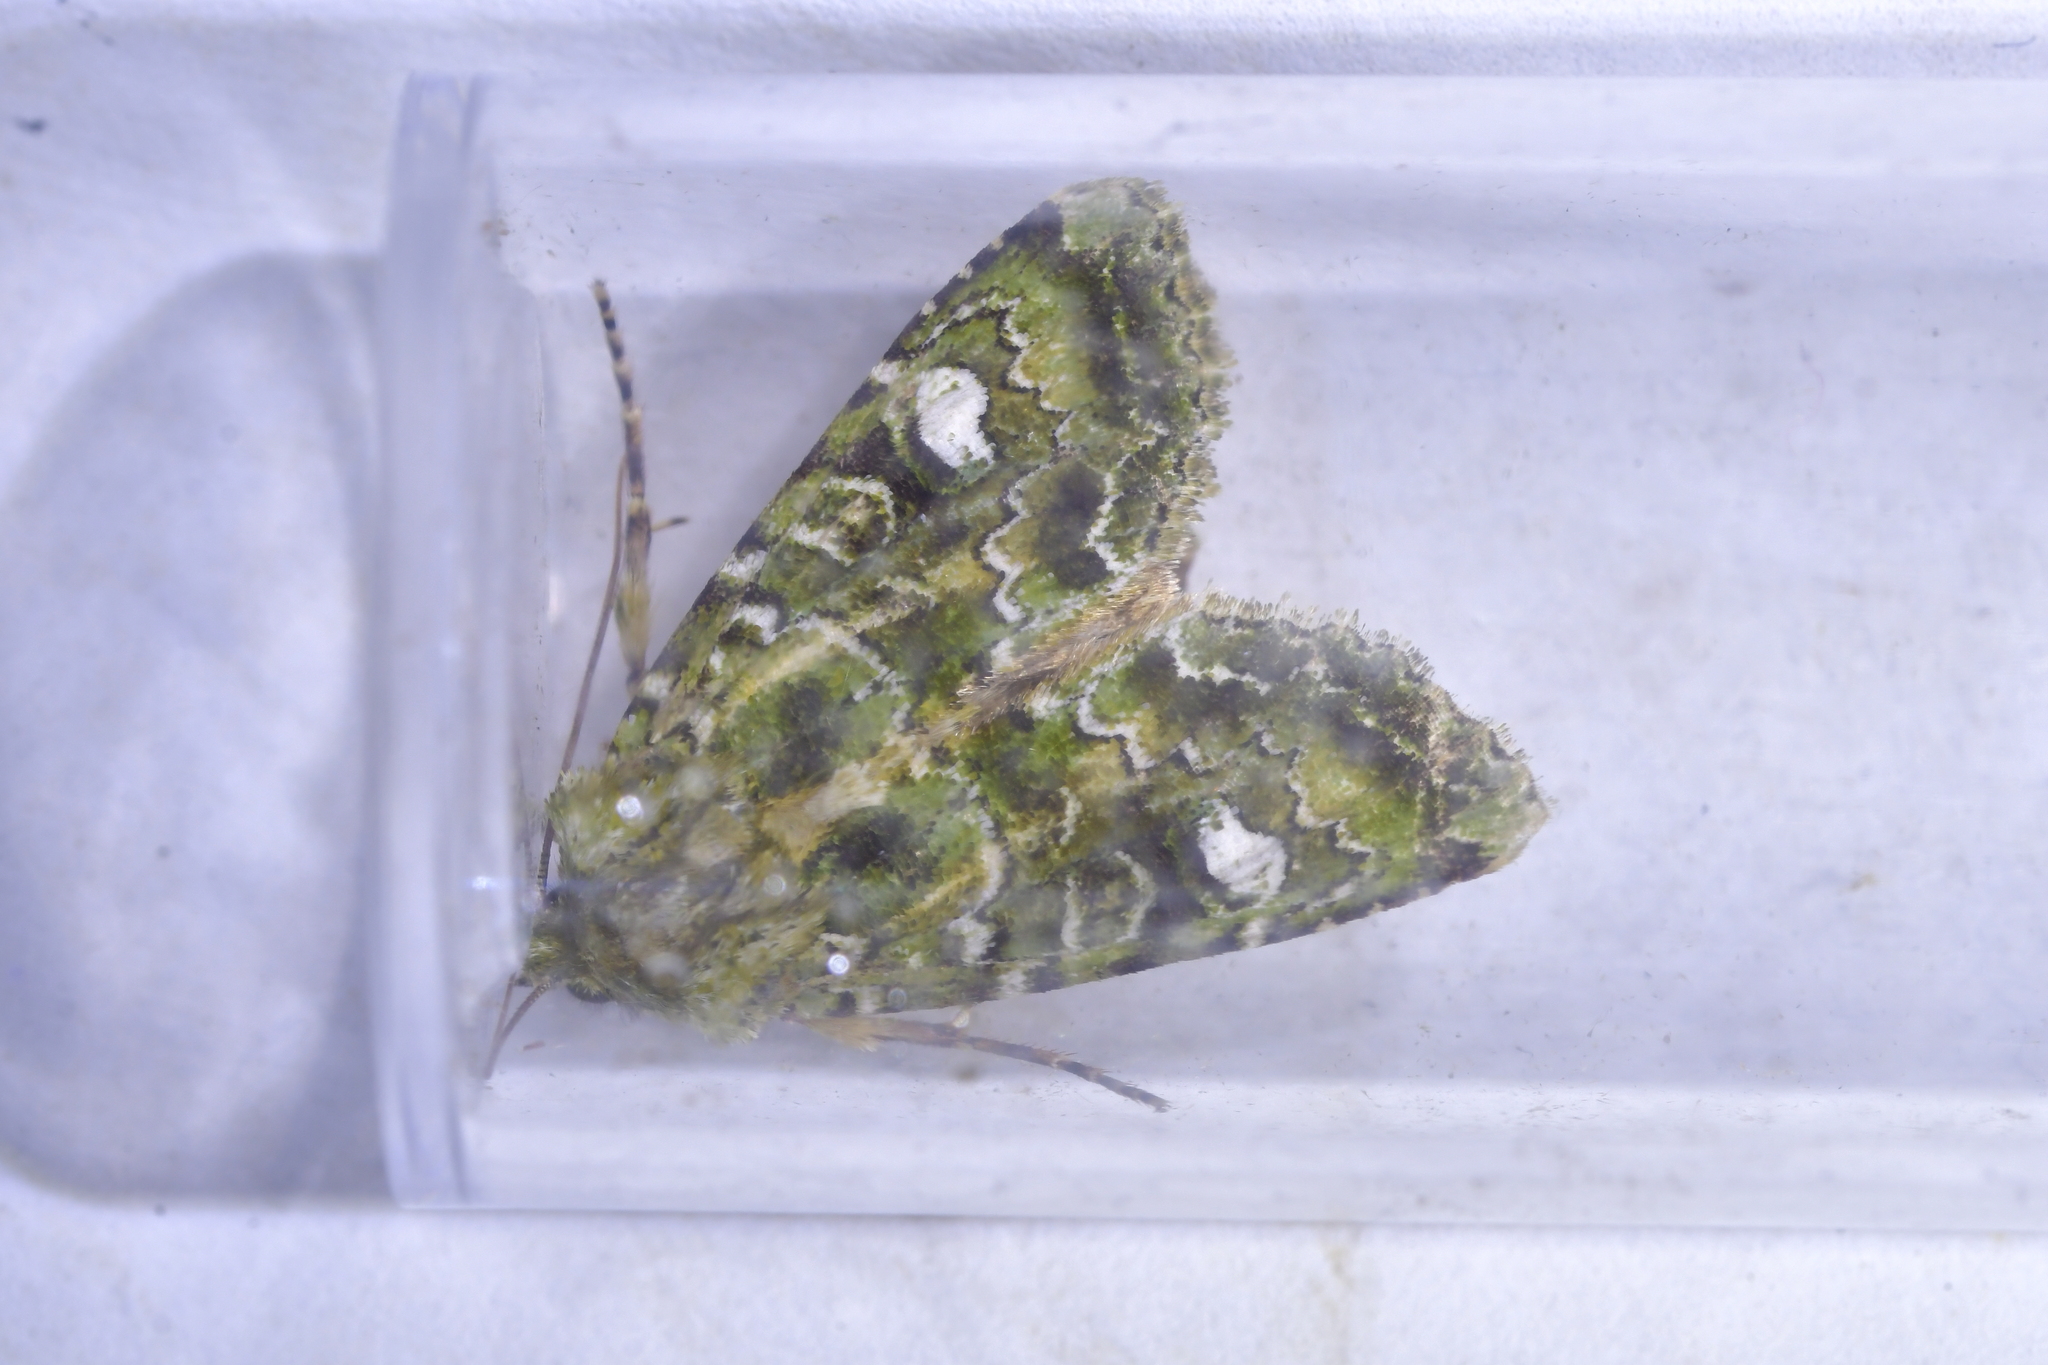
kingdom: Animalia
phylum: Arthropoda
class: Insecta
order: Lepidoptera
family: Noctuidae
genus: Ichneutica
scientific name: Ichneutica
